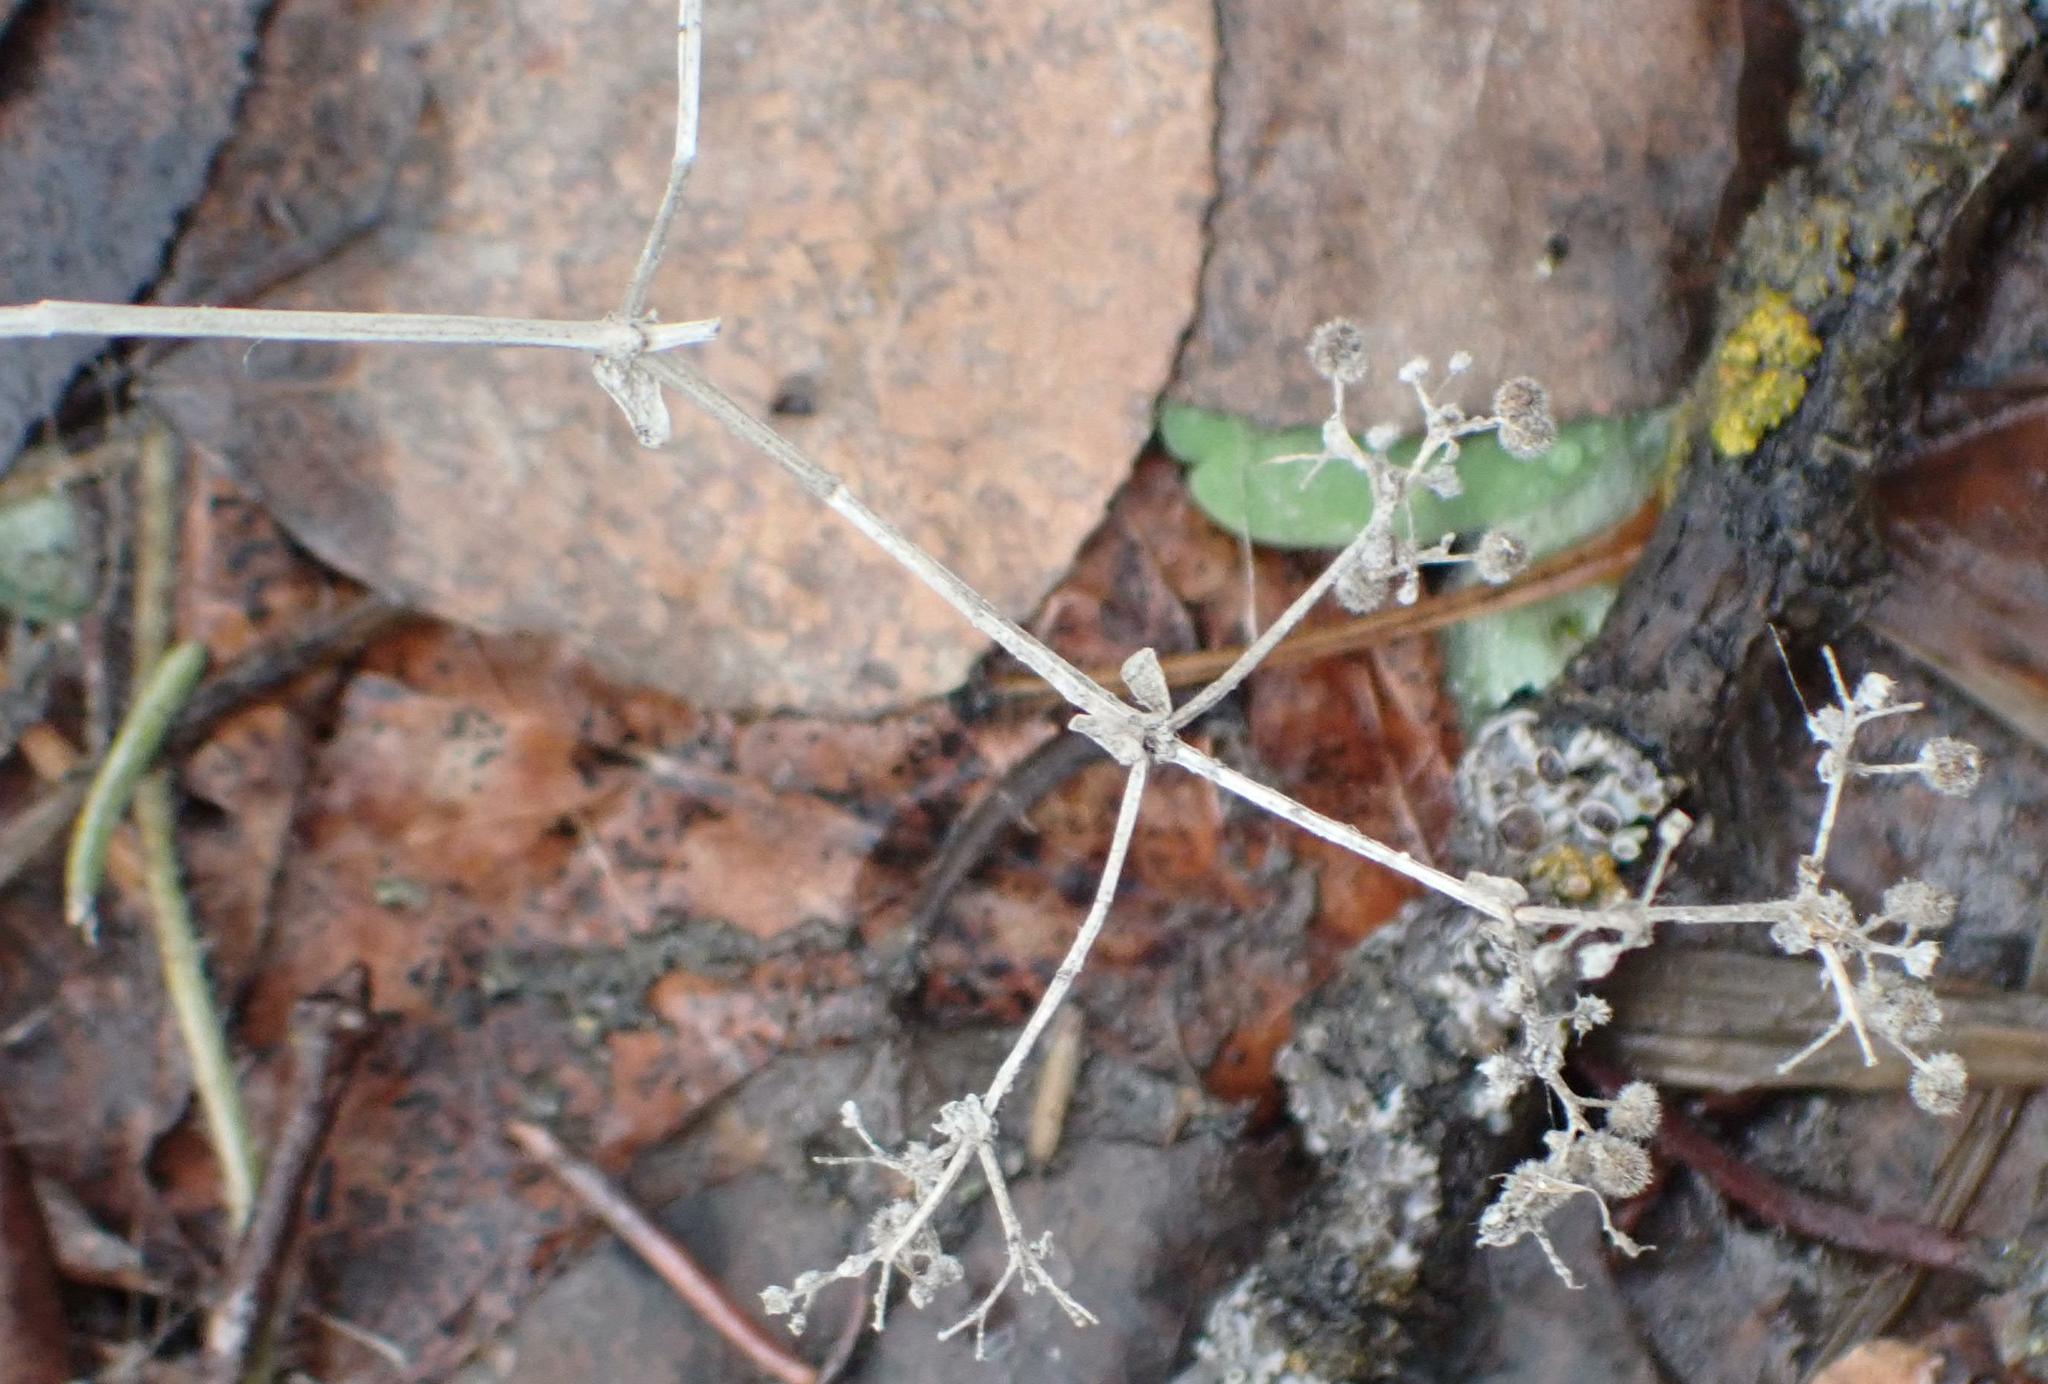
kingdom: Plantae
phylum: Tracheophyta
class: Magnoliopsida
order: Gentianales
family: Rubiaceae
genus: Galium
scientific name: Galium boreale
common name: Northern bedstraw
